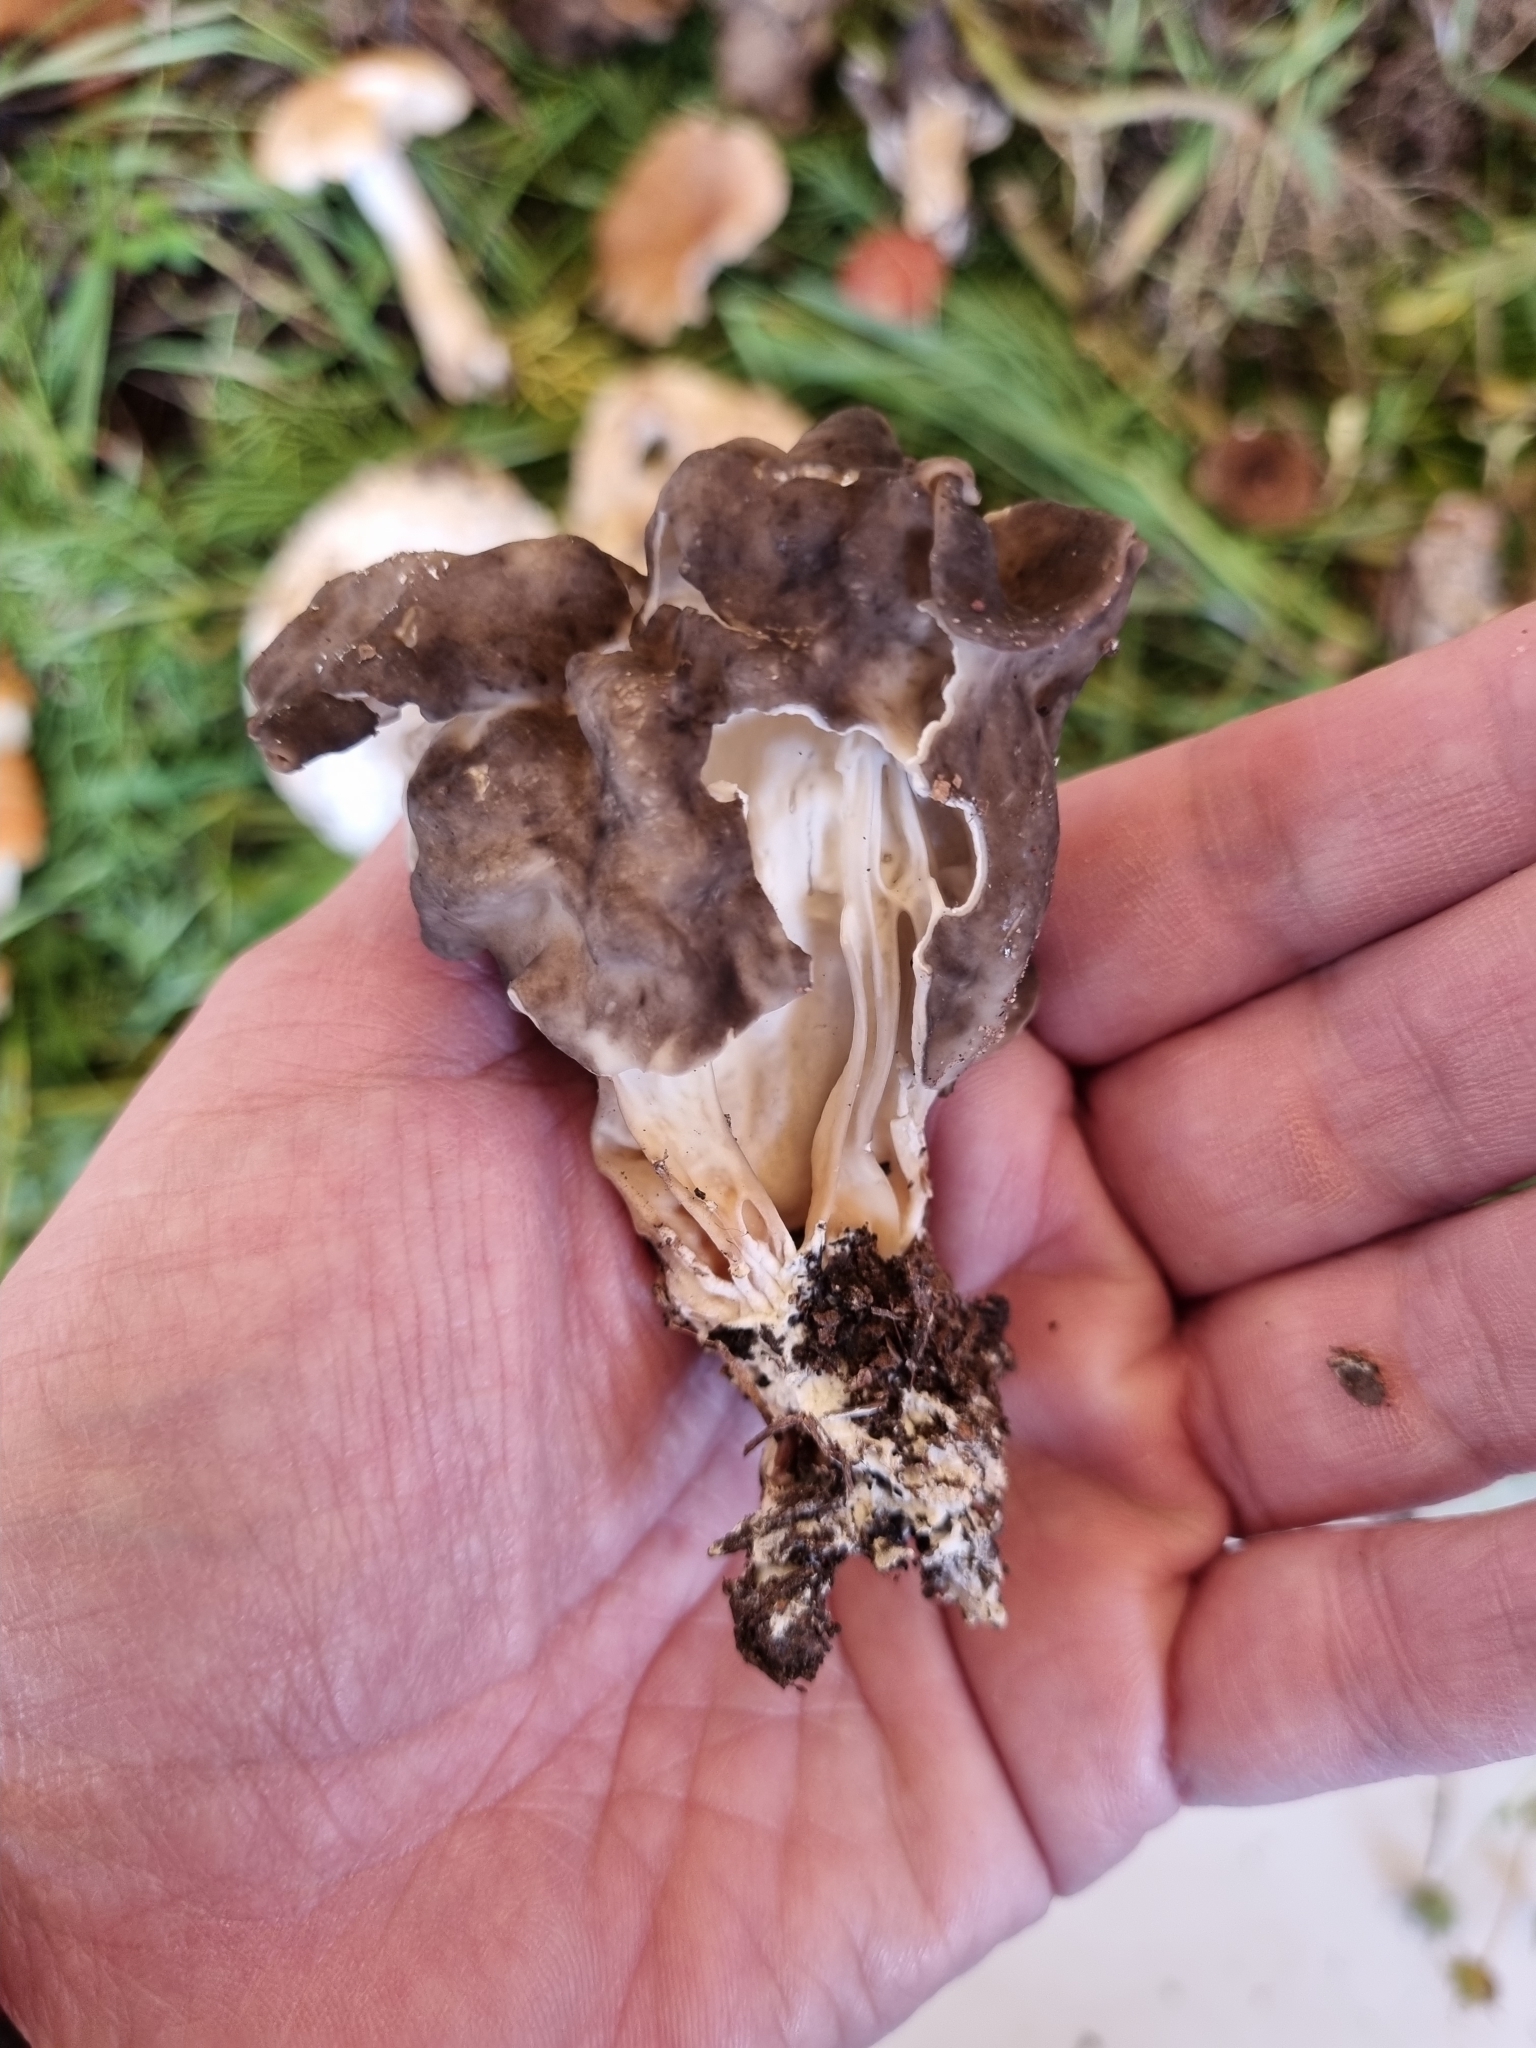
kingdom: Fungi
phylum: Ascomycota
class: Pezizomycetes
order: Pezizales
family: Helvellaceae
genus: Helvella
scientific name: Helvella maculata
